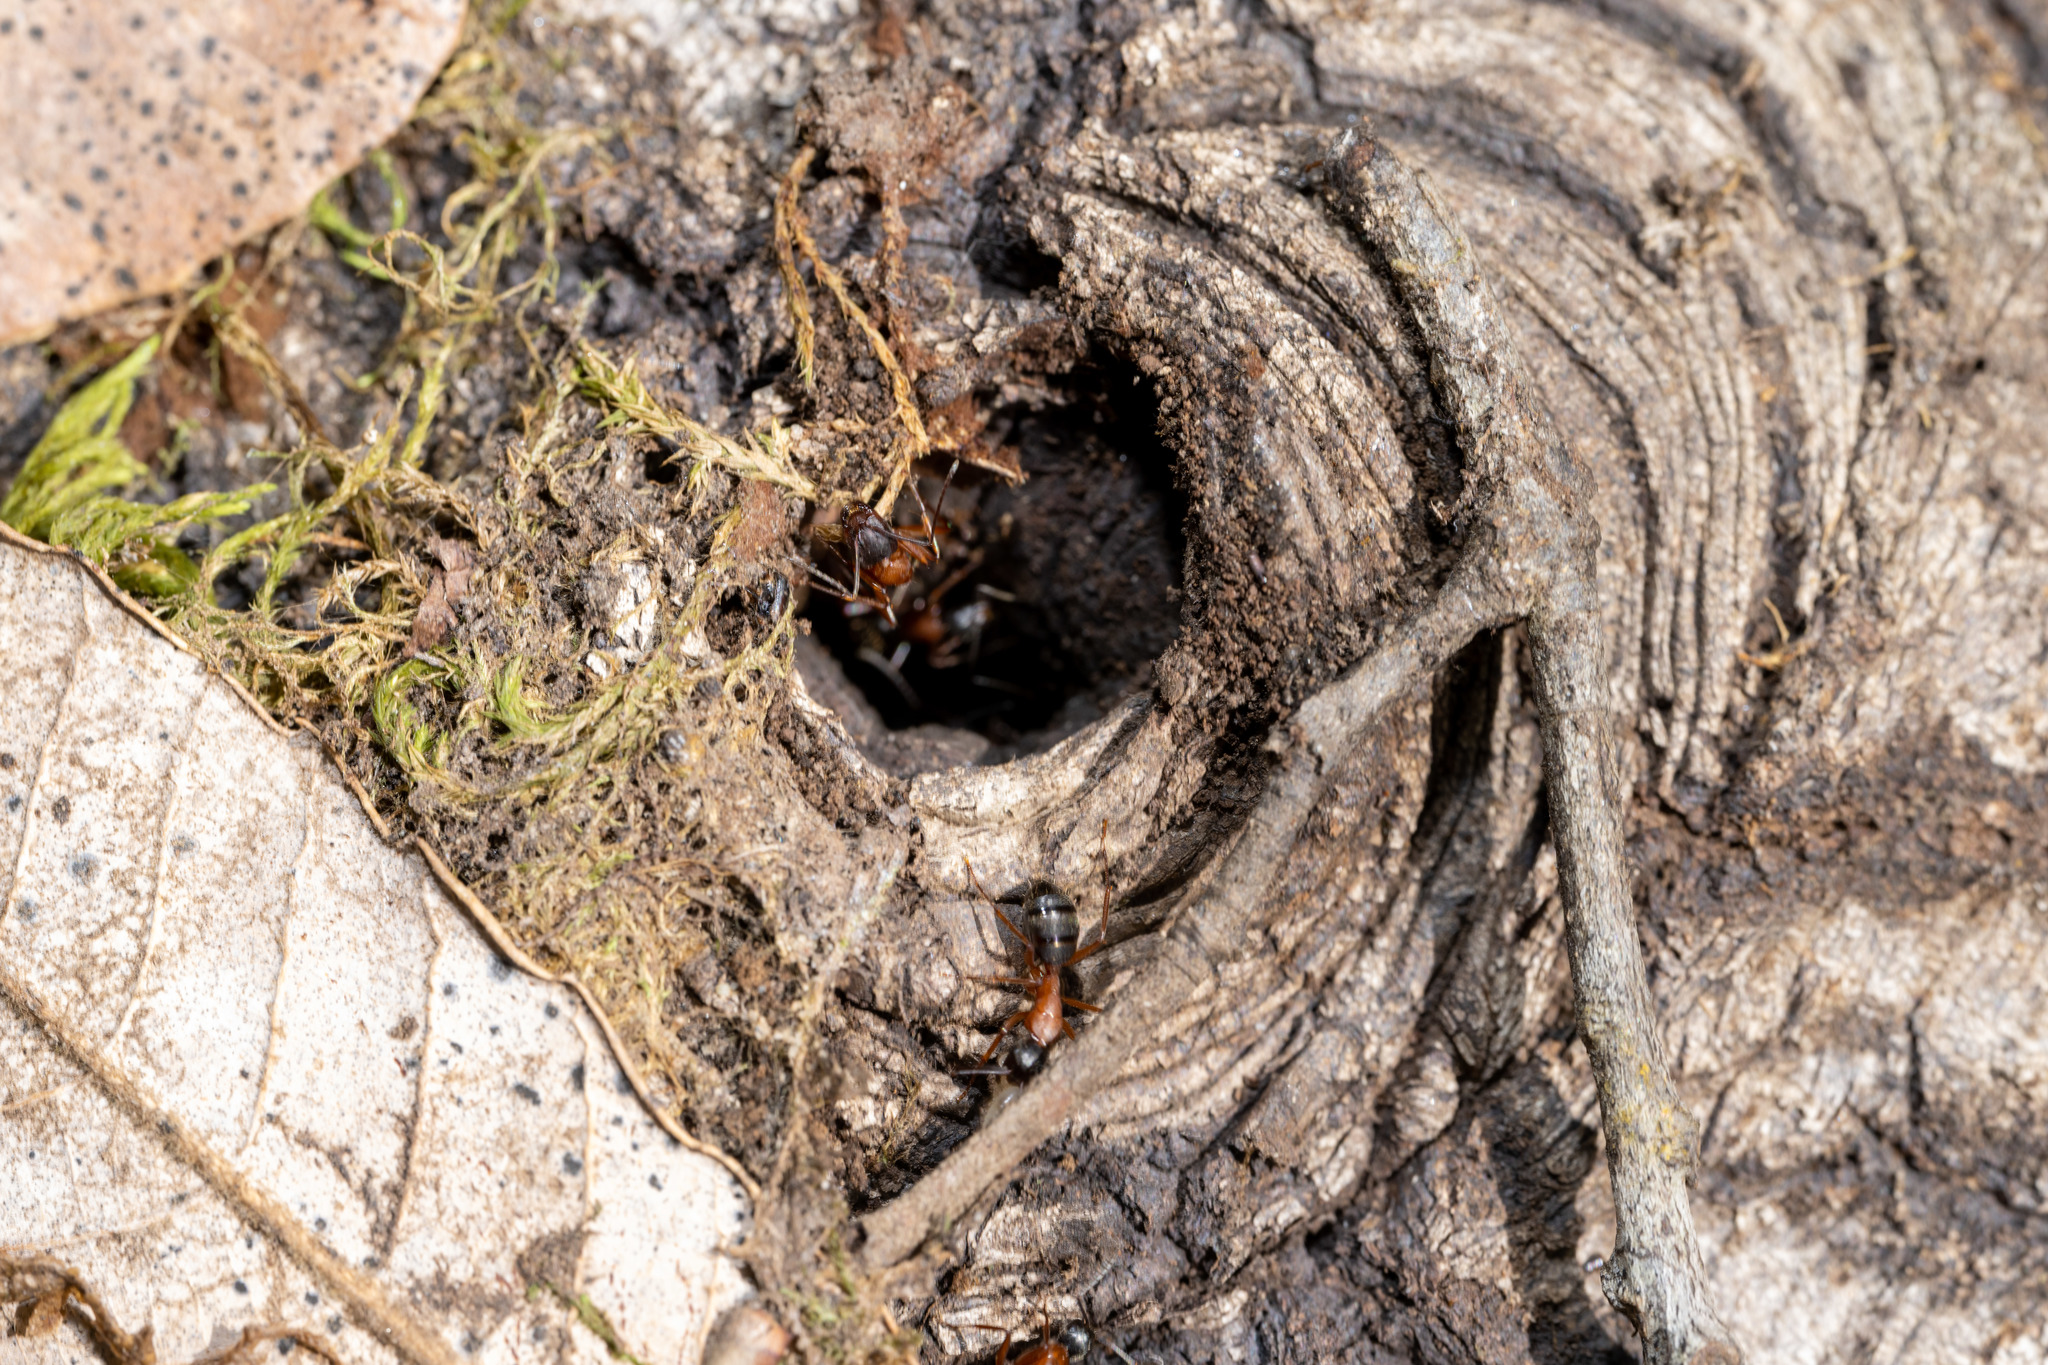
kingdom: Animalia
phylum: Arthropoda
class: Insecta
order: Hymenoptera
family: Formicidae
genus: Camponotus
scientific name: Camponotus vicinus
